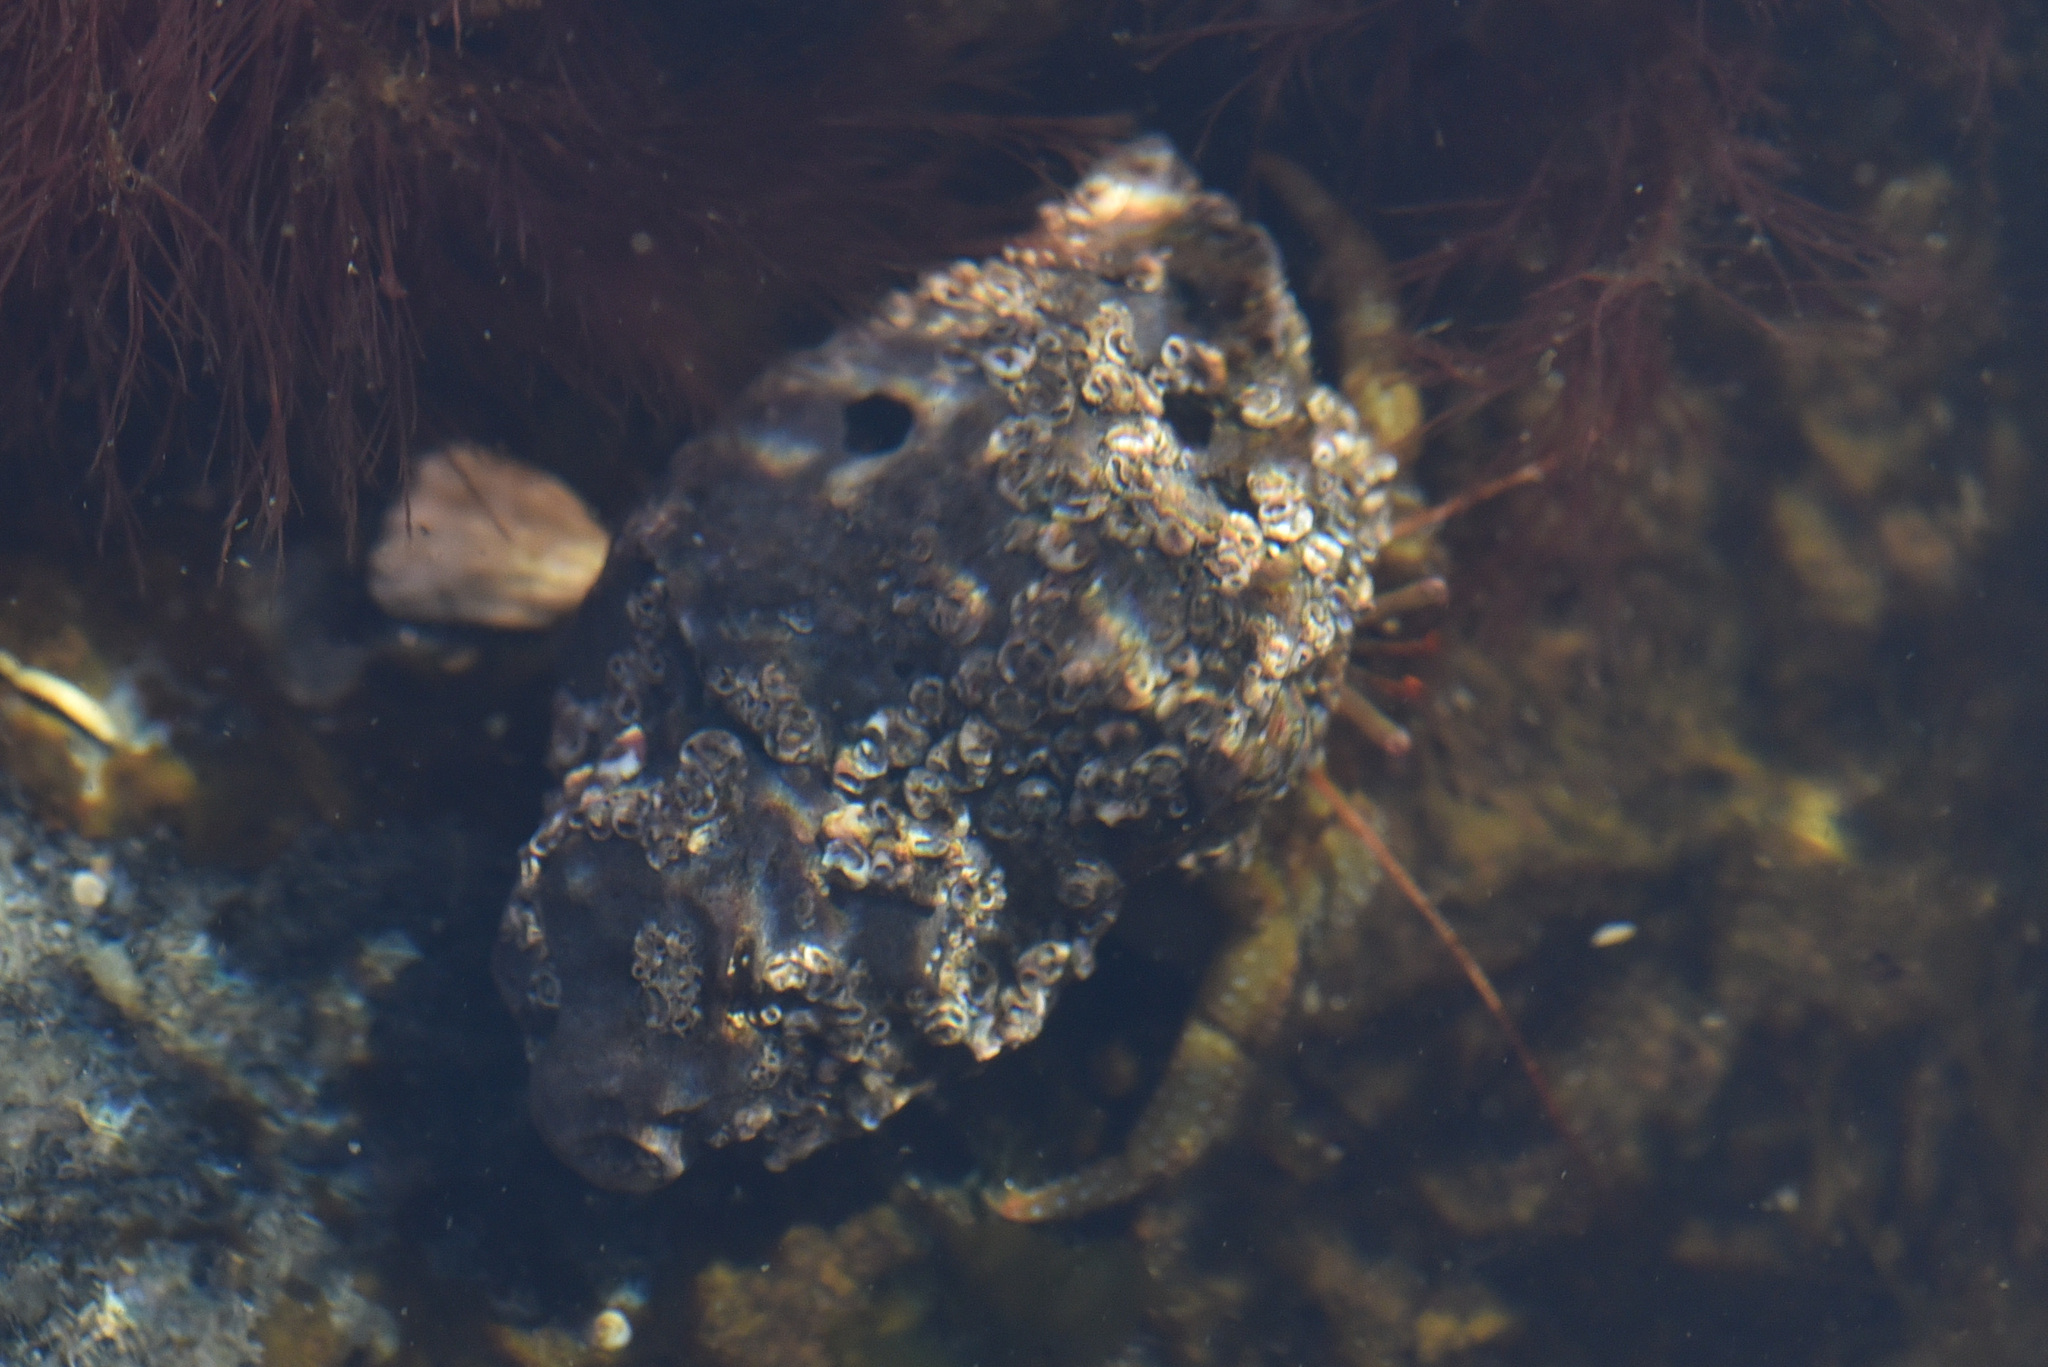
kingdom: Animalia
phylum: Arthropoda
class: Malacostraca
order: Decapoda
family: Paguridae
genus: Pagurus
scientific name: Pagurus granosimanus
